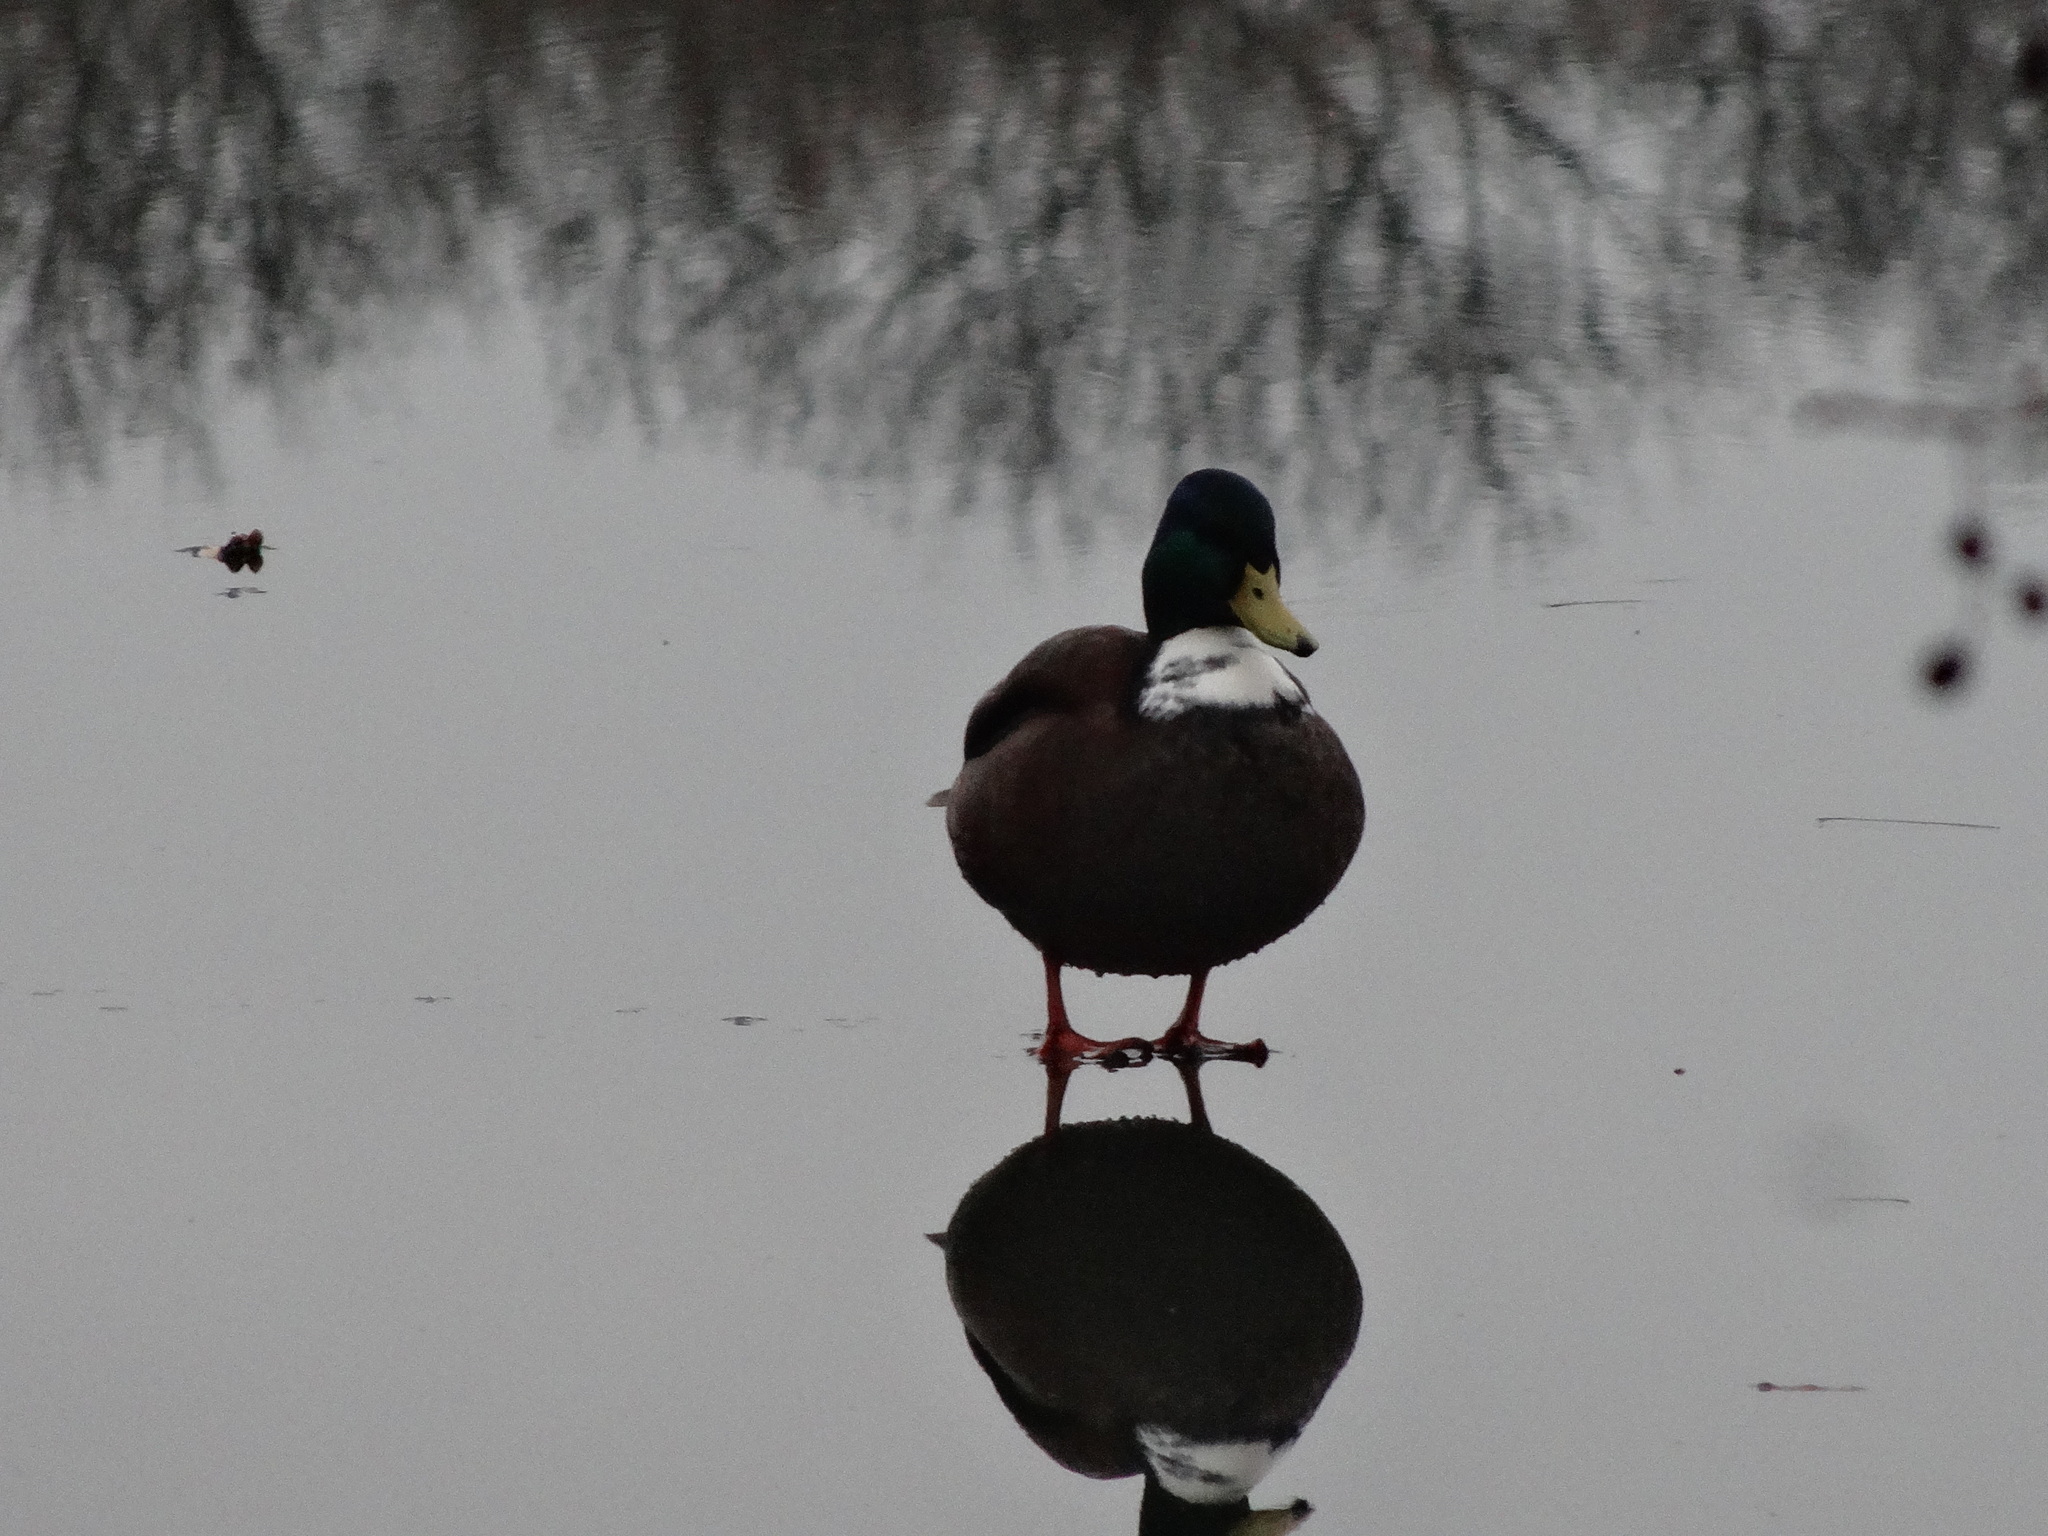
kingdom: Animalia
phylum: Chordata
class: Aves
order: Anseriformes
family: Anatidae
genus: Anas
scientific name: Anas platyrhynchos
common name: Mallard
